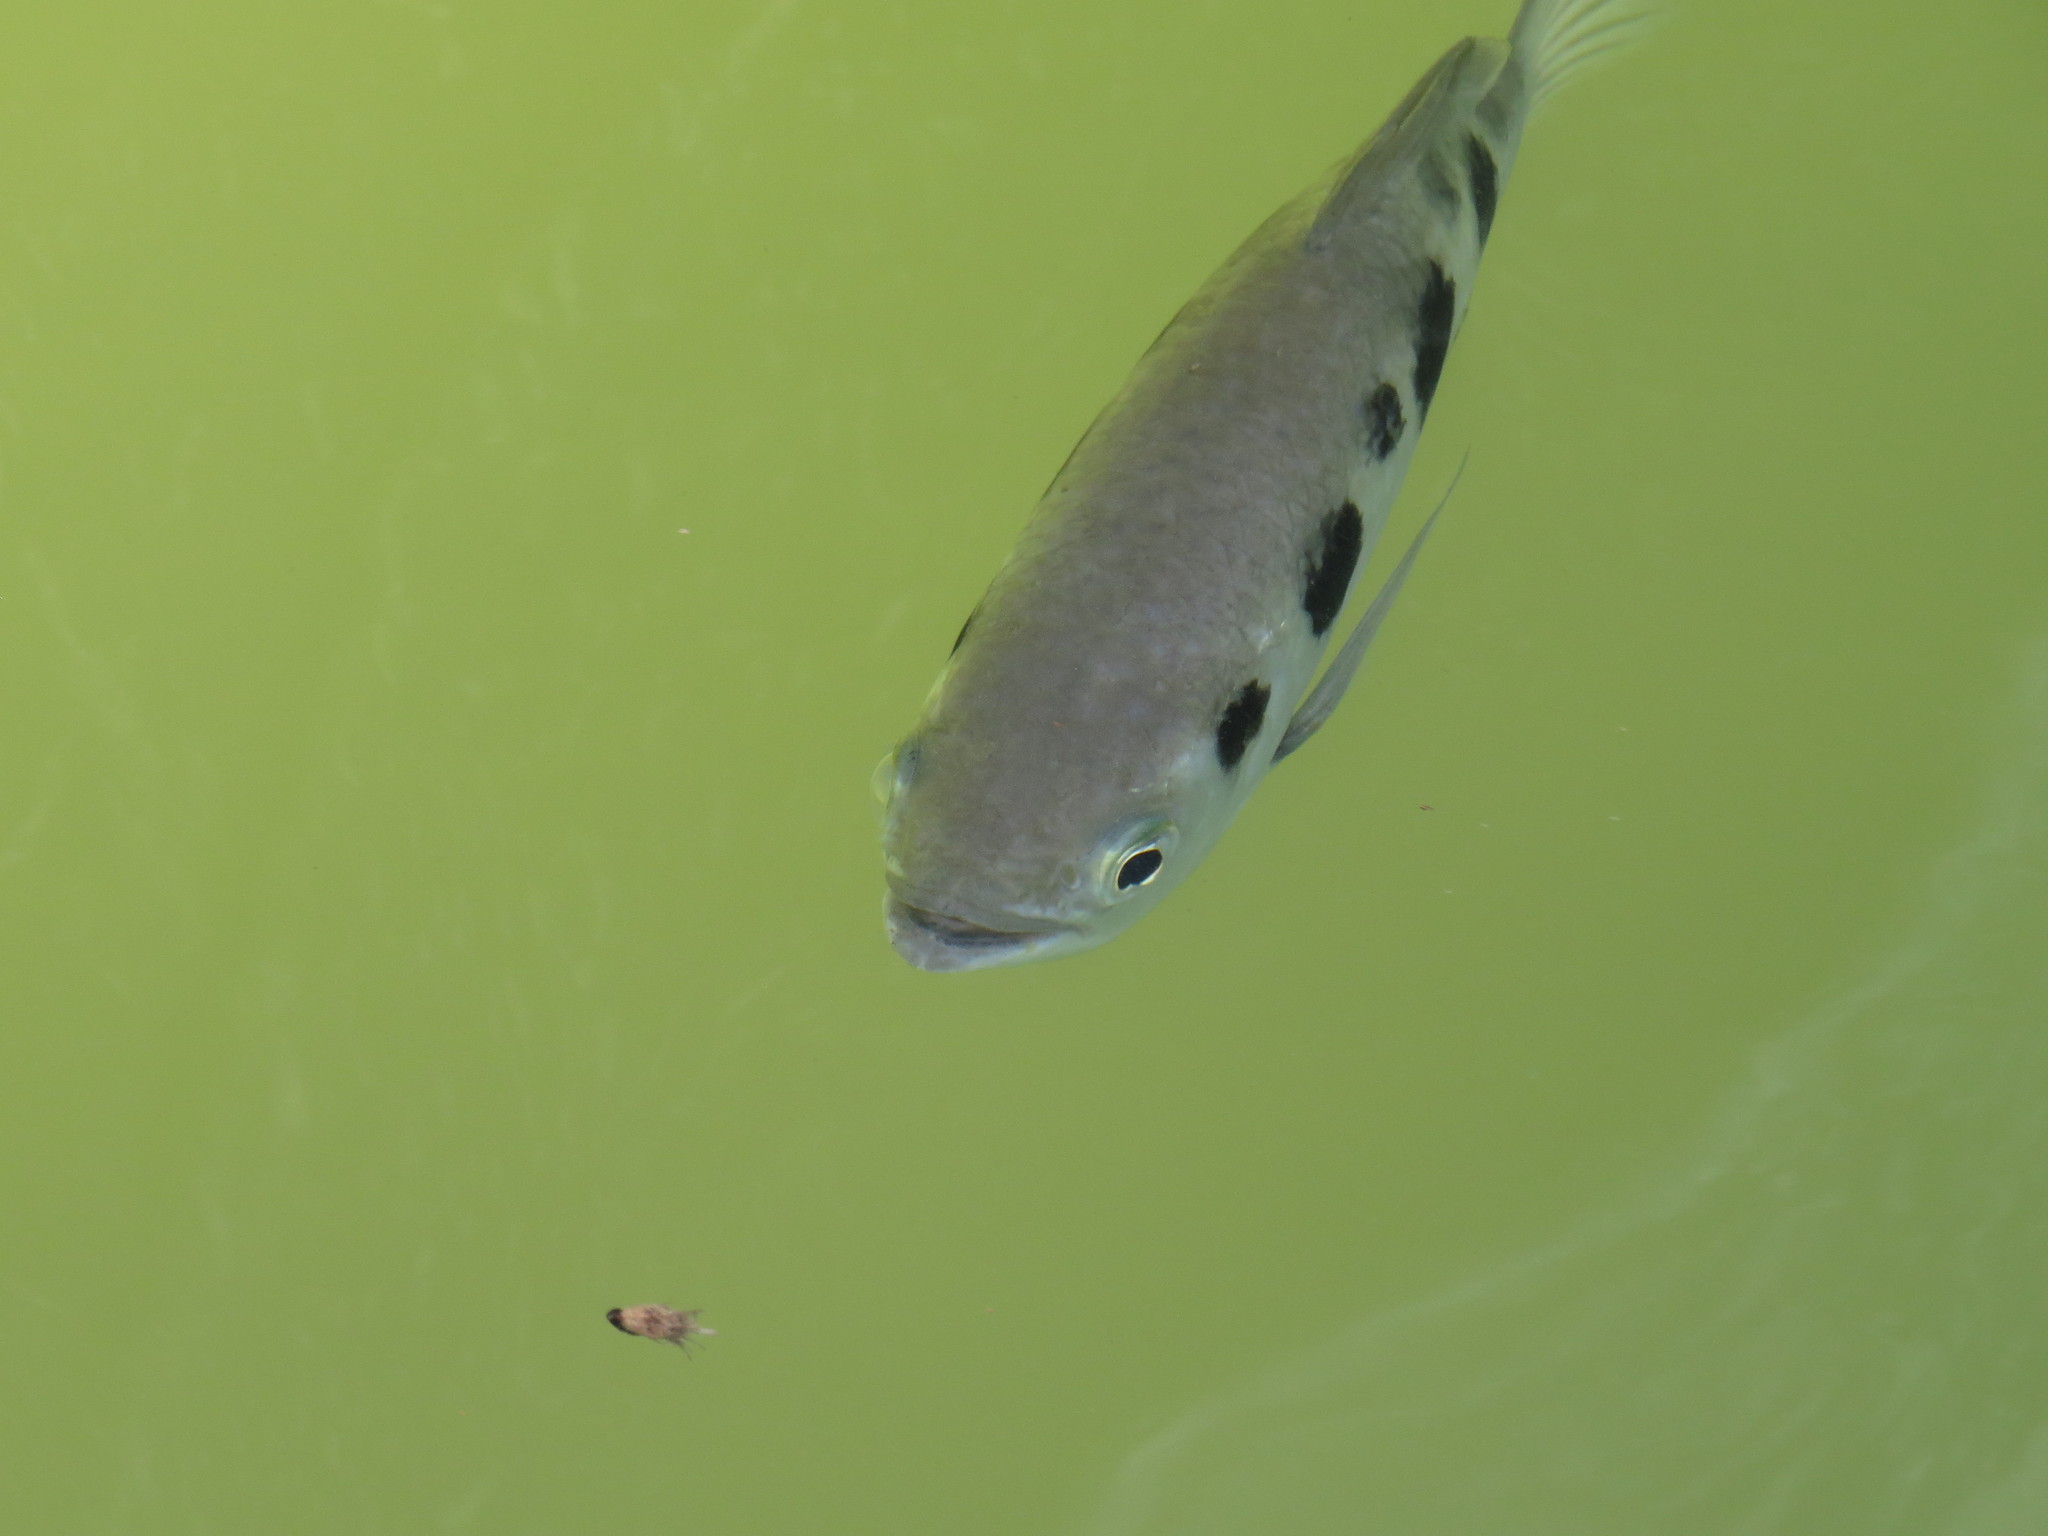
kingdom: Animalia
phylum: Chordata
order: Perciformes
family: Toxotidae
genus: Toxotes
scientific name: Toxotes chatareus
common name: Spotted archerfish
